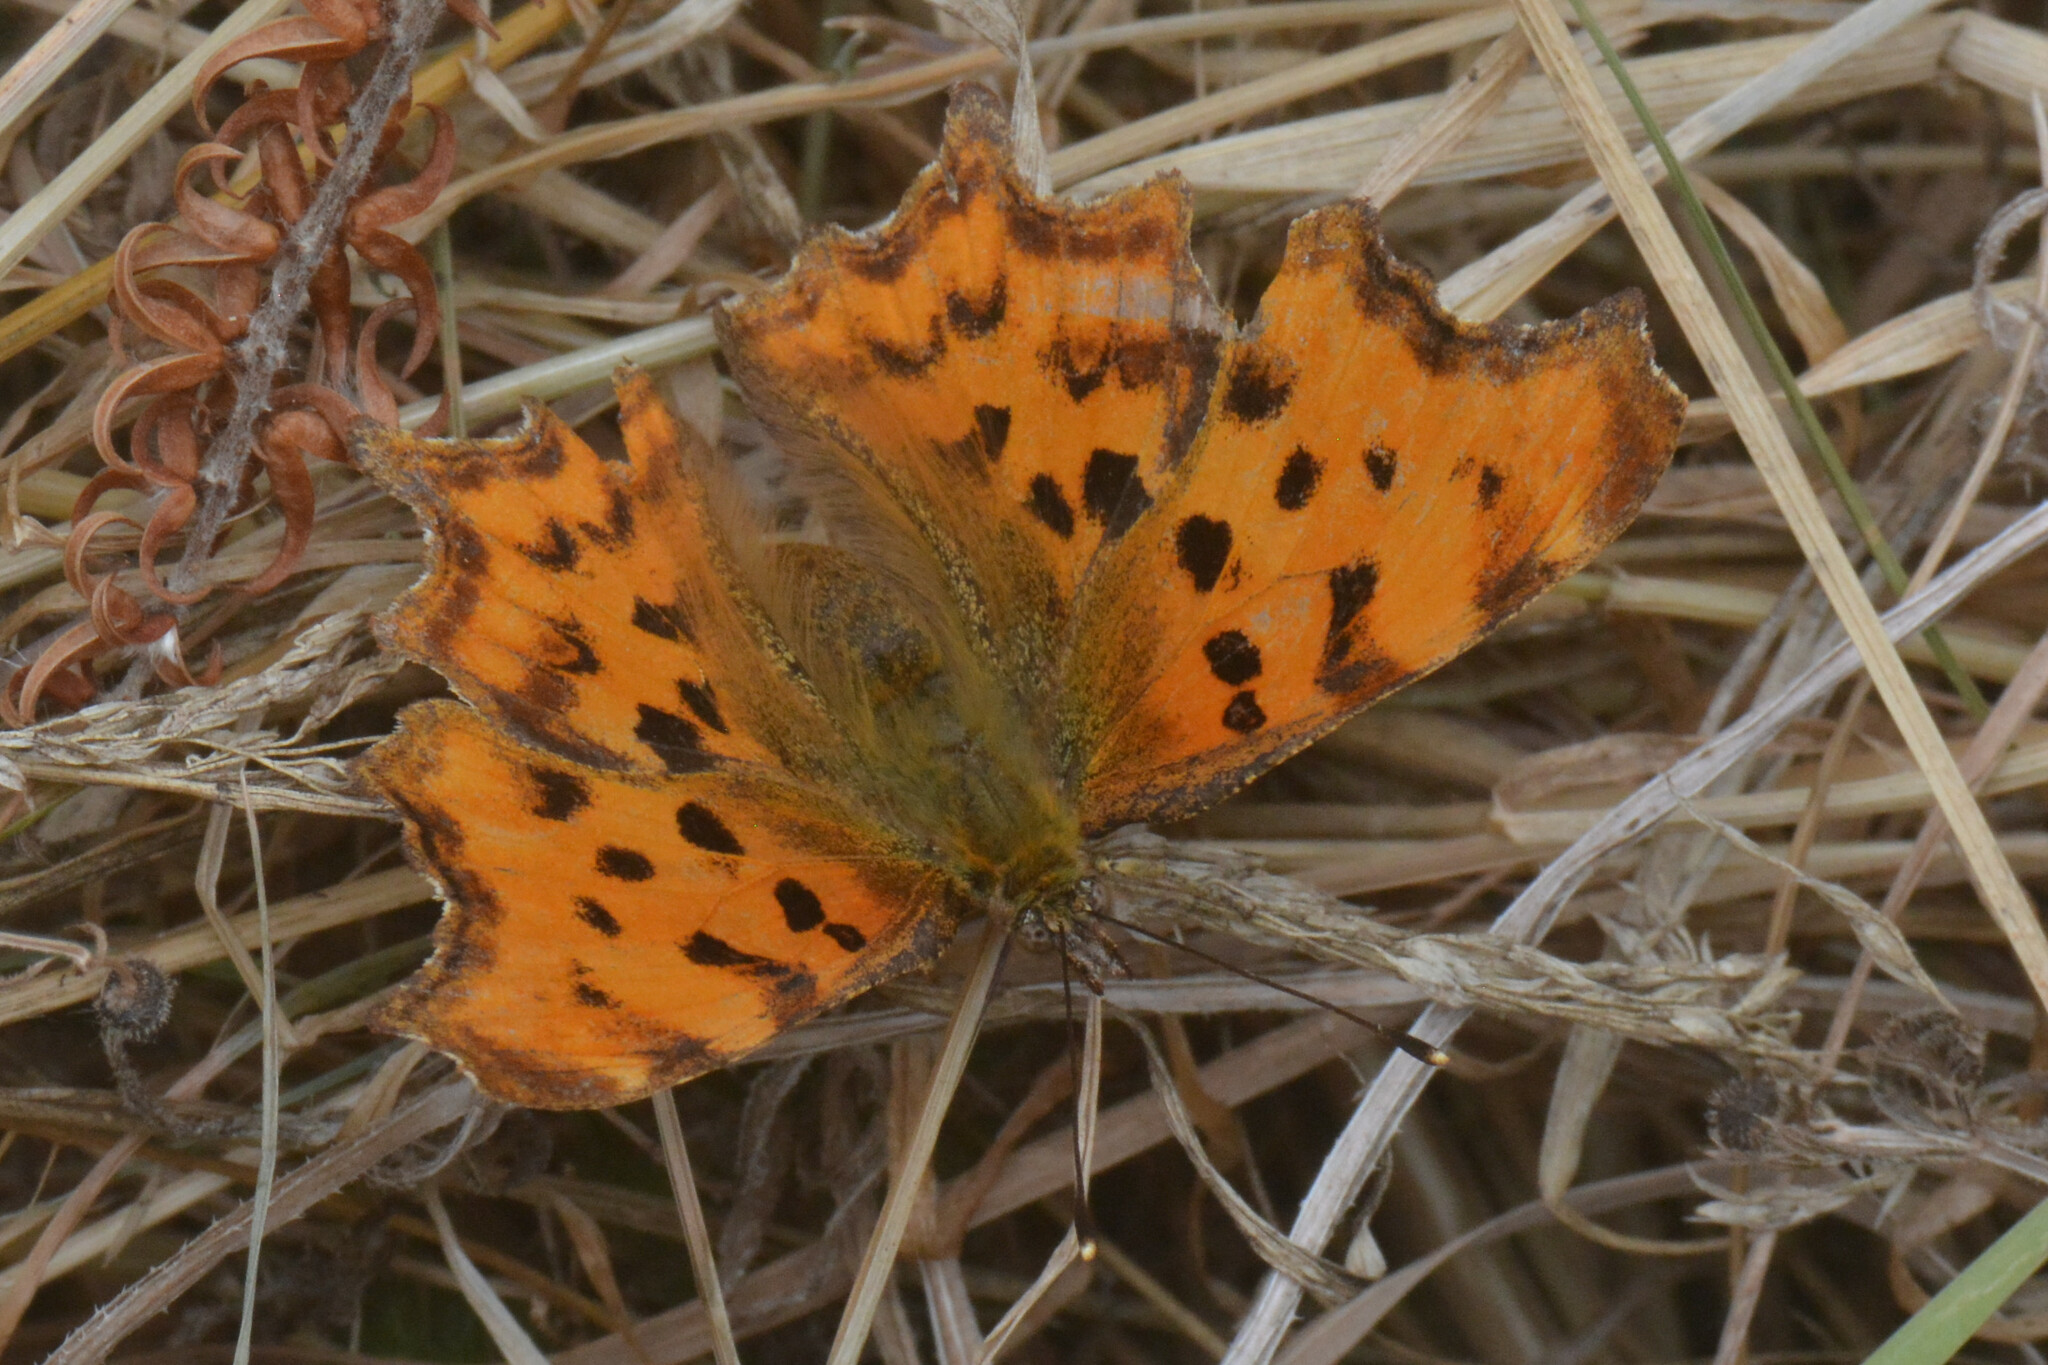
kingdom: Animalia
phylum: Arthropoda
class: Insecta
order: Lepidoptera
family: Nymphalidae
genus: Polygonia
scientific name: Polygonia c-album
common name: Comma
